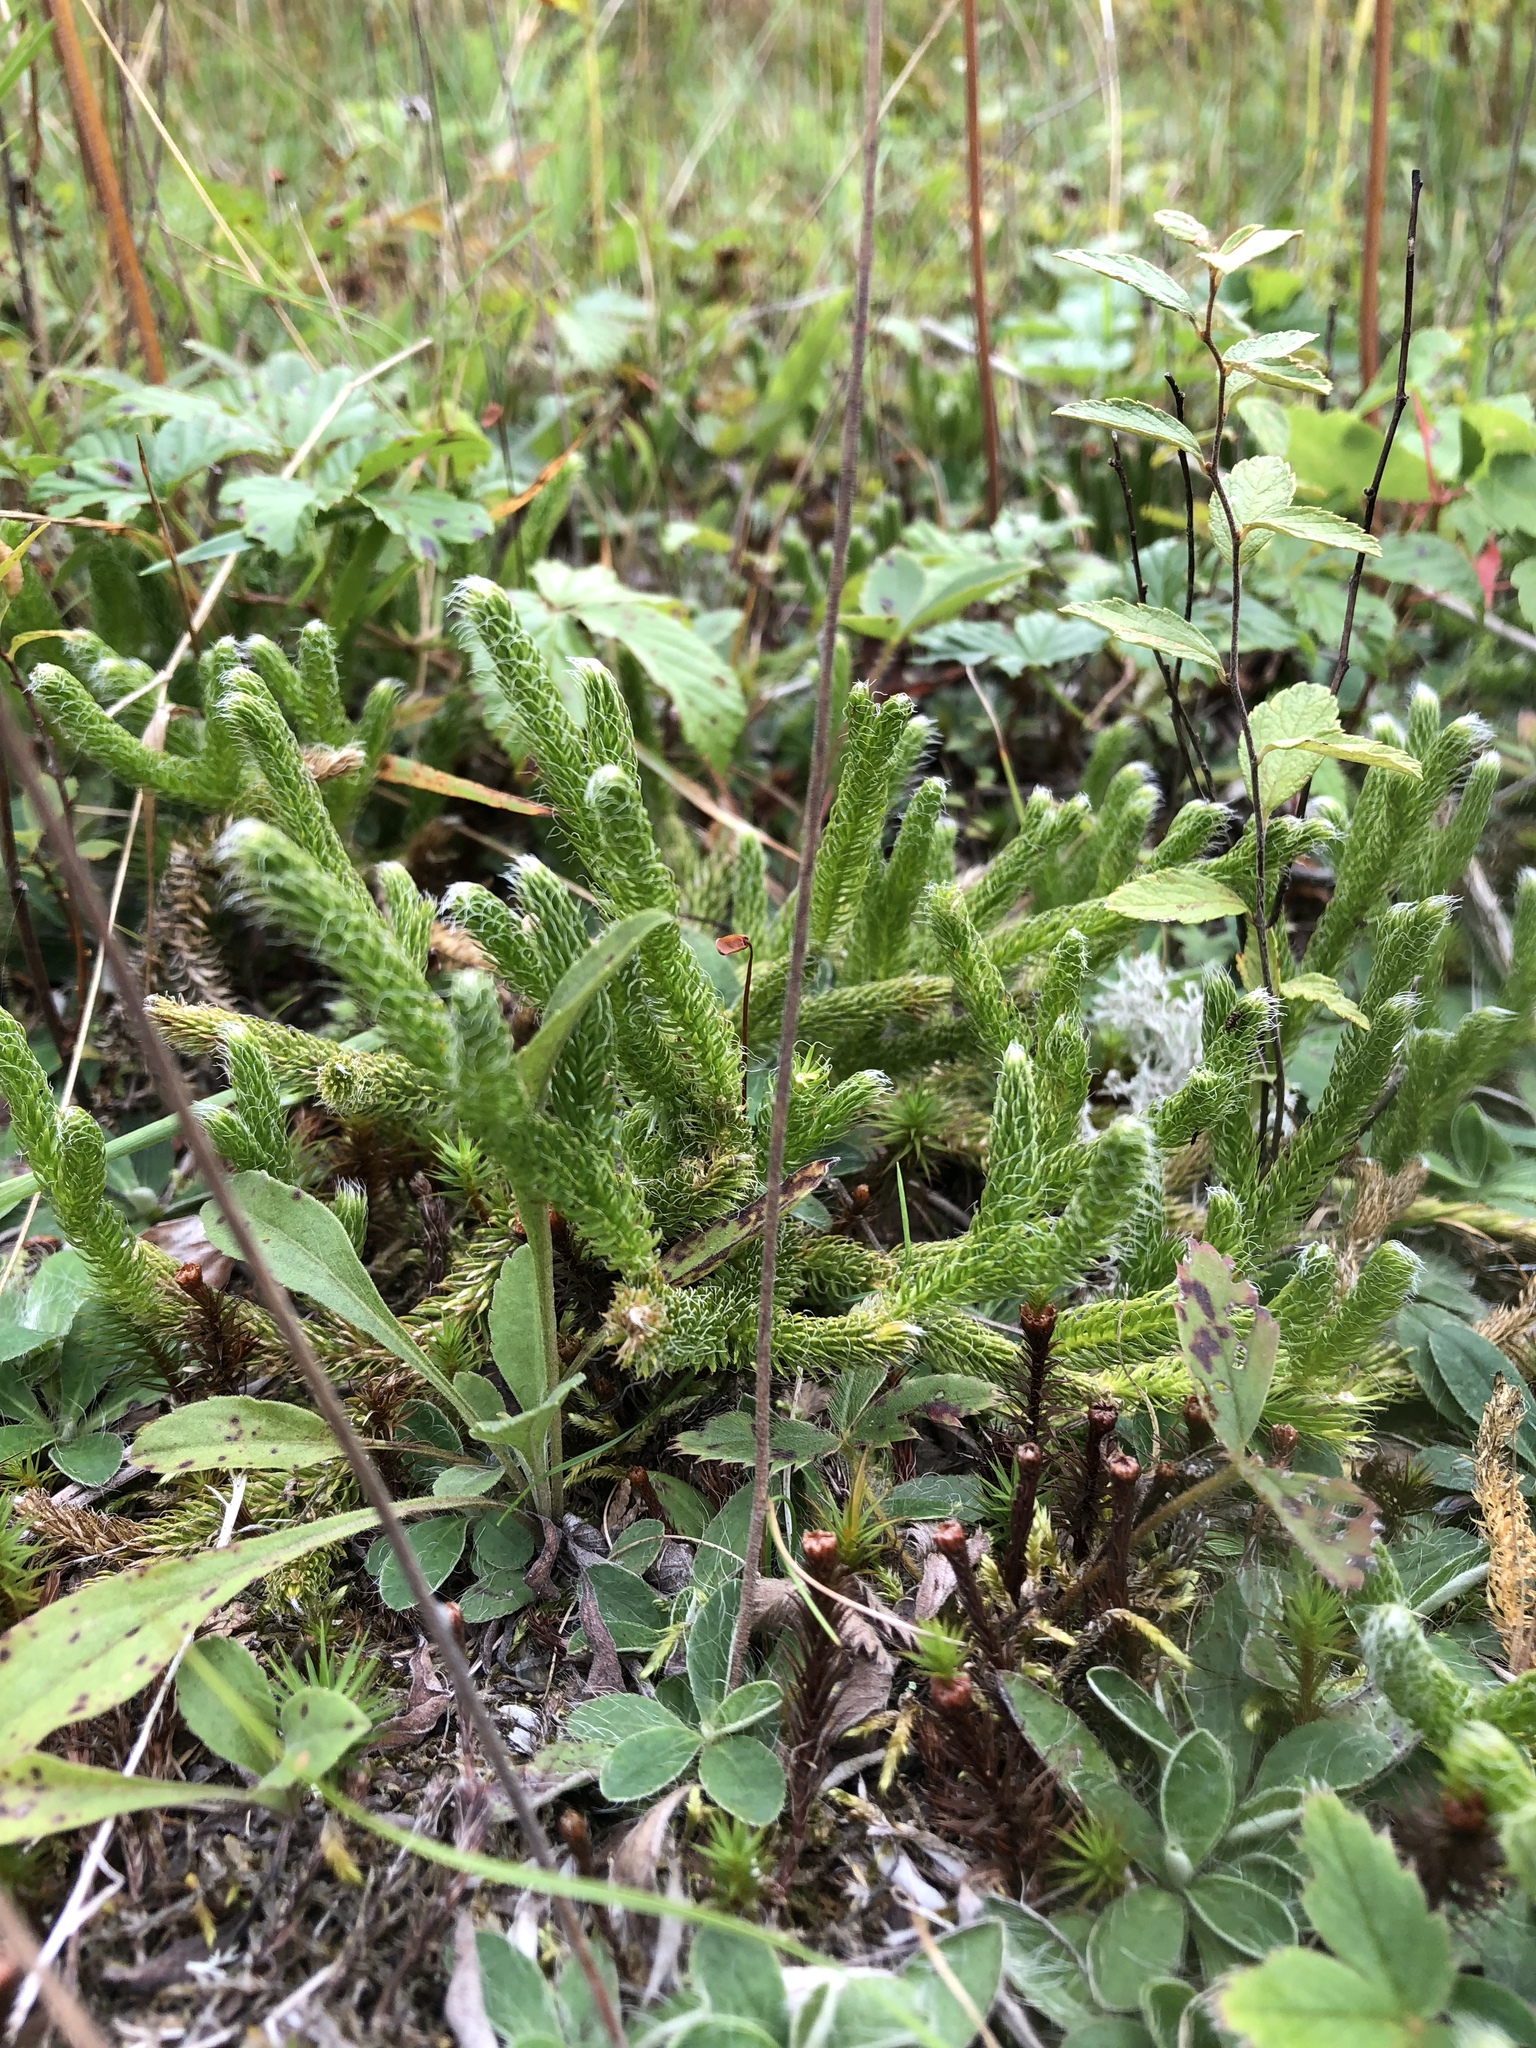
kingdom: Plantae
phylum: Tracheophyta
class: Lycopodiopsida
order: Lycopodiales
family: Lycopodiaceae
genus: Lycopodium
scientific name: Lycopodium clavatum
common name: Stag's-horn clubmoss
